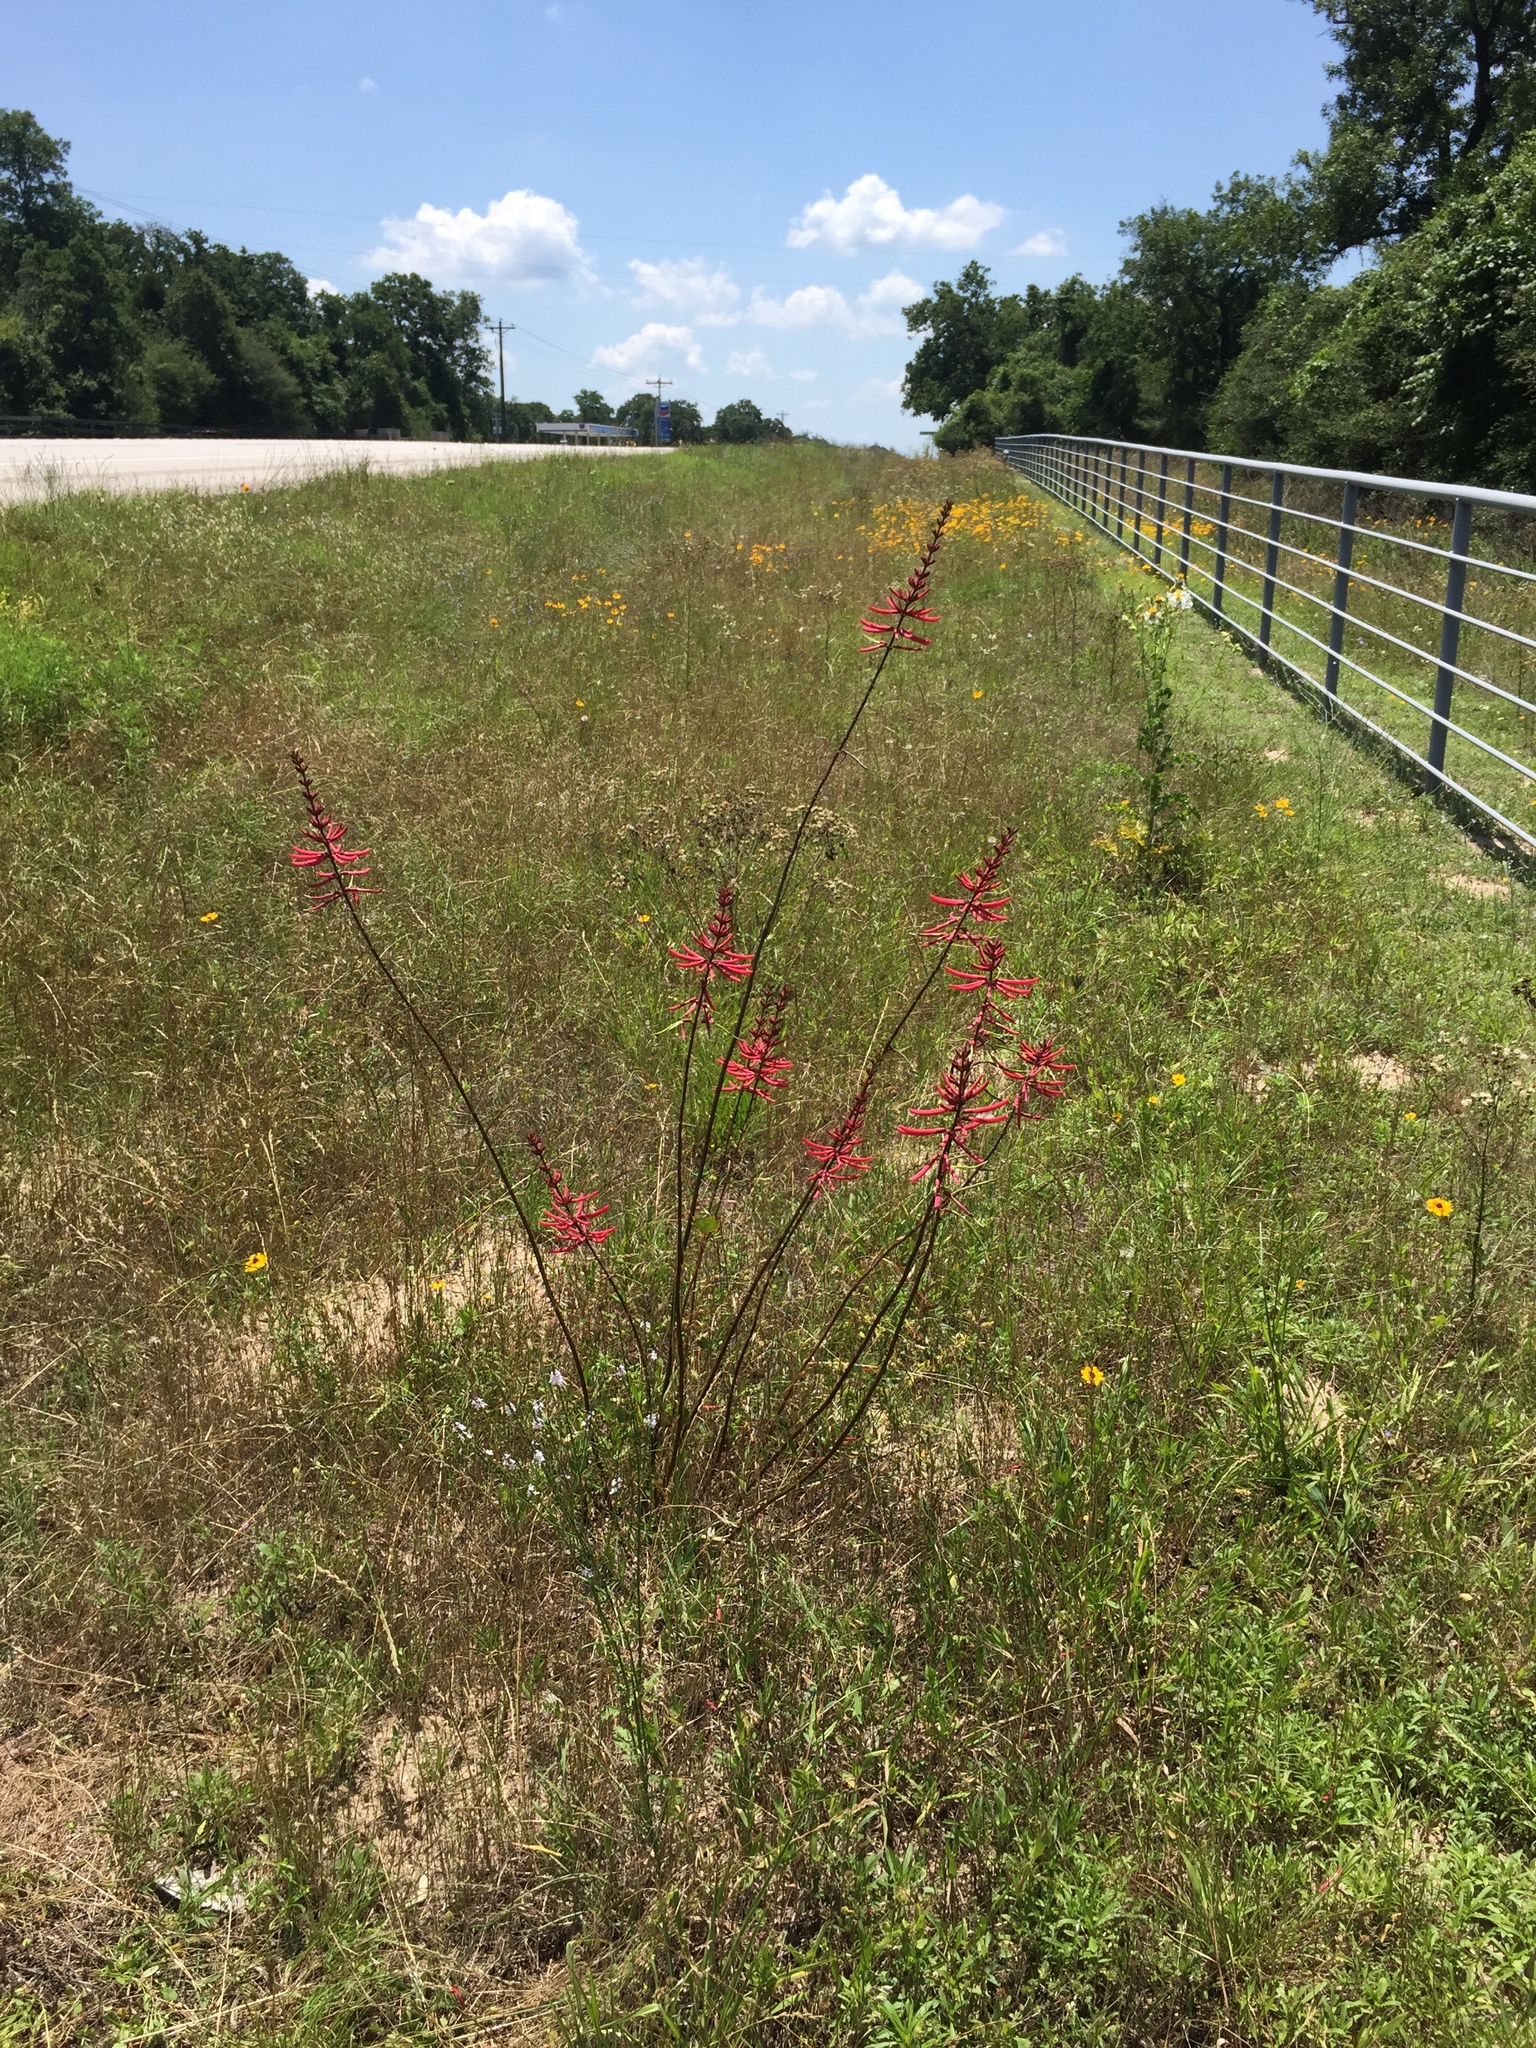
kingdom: Plantae
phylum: Tracheophyta
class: Magnoliopsida
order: Fabales
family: Fabaceae
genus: Erythrina
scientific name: Erythrina herbacea
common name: Coral-bean
